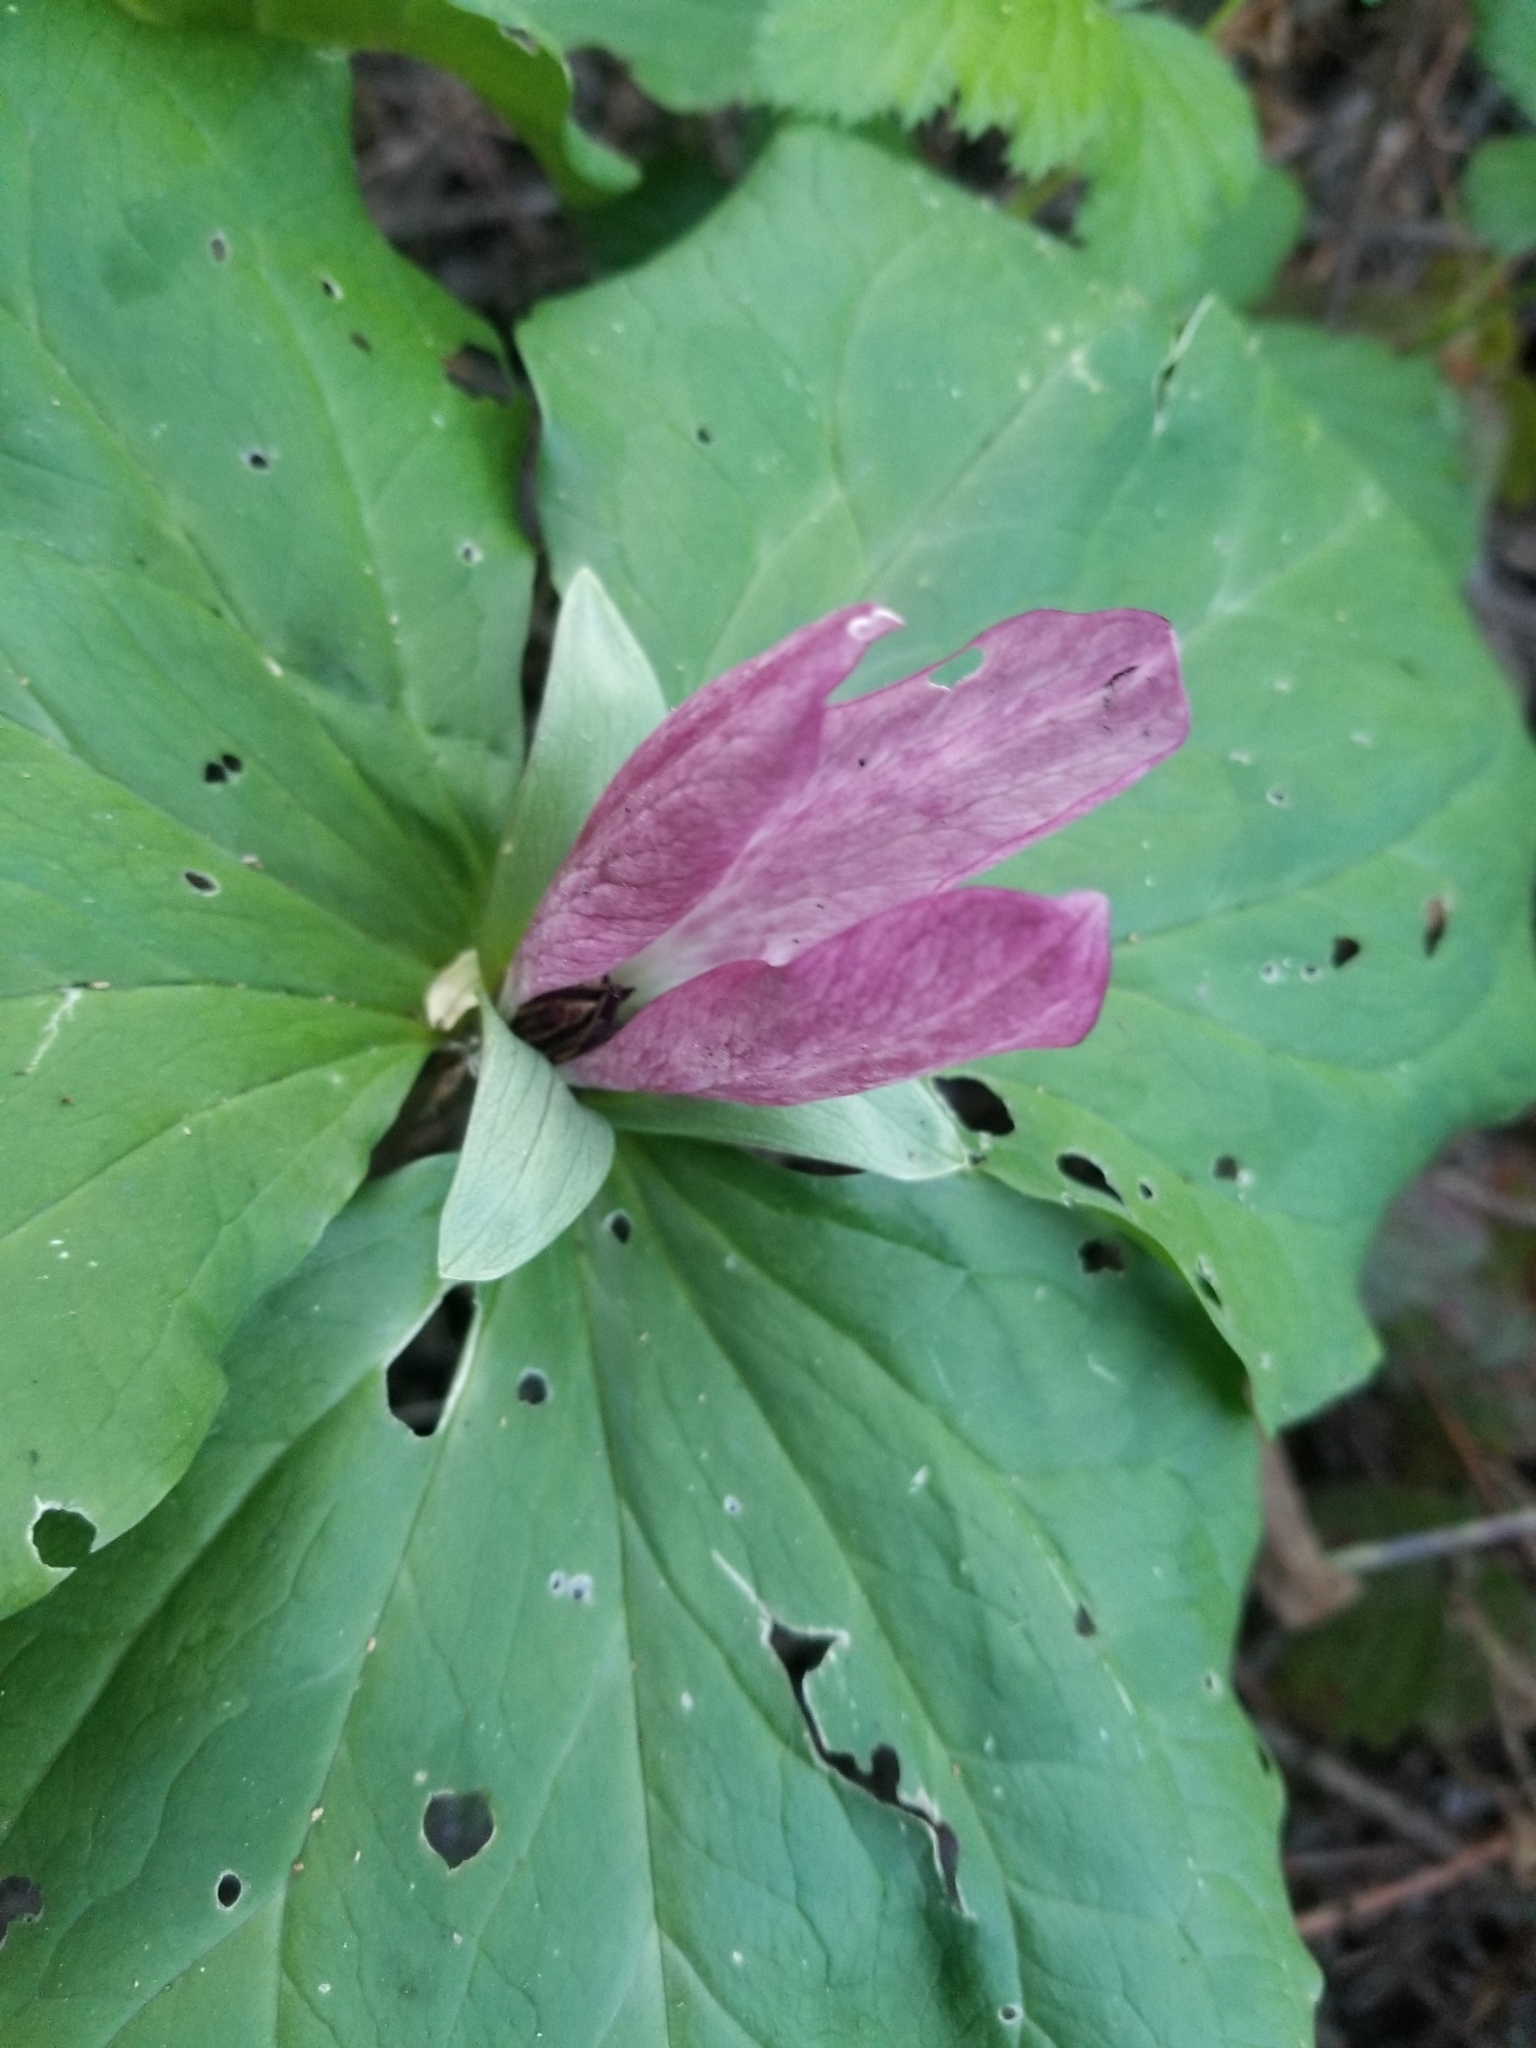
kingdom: Plantae
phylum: Tracheophyta
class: Liliopsida
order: Liliales
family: Melanthiaceae
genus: Trillium
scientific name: Trillium chloropetalum
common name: Giant trillium
